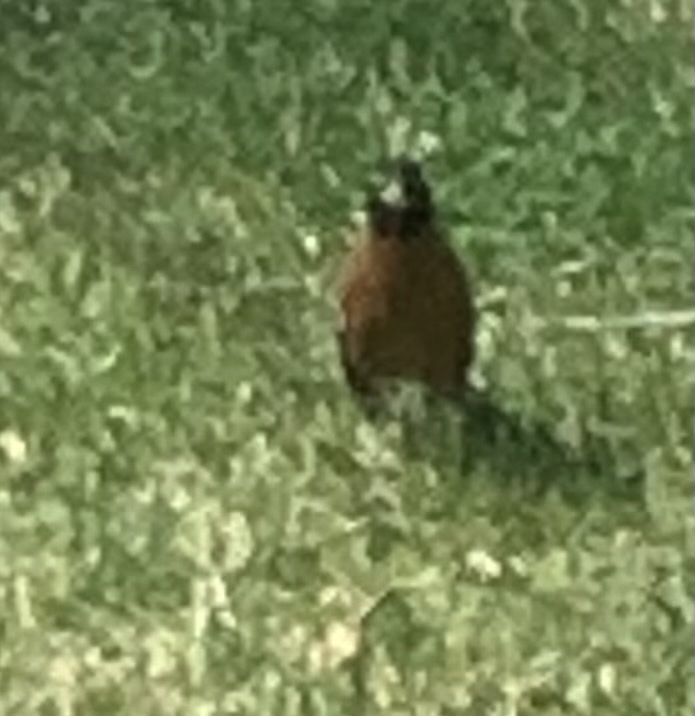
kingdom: Animalia
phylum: Chordata
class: Aves
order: Passeriformes
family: Turdidae
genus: Turdus
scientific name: Turdus migratorius
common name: American robin
